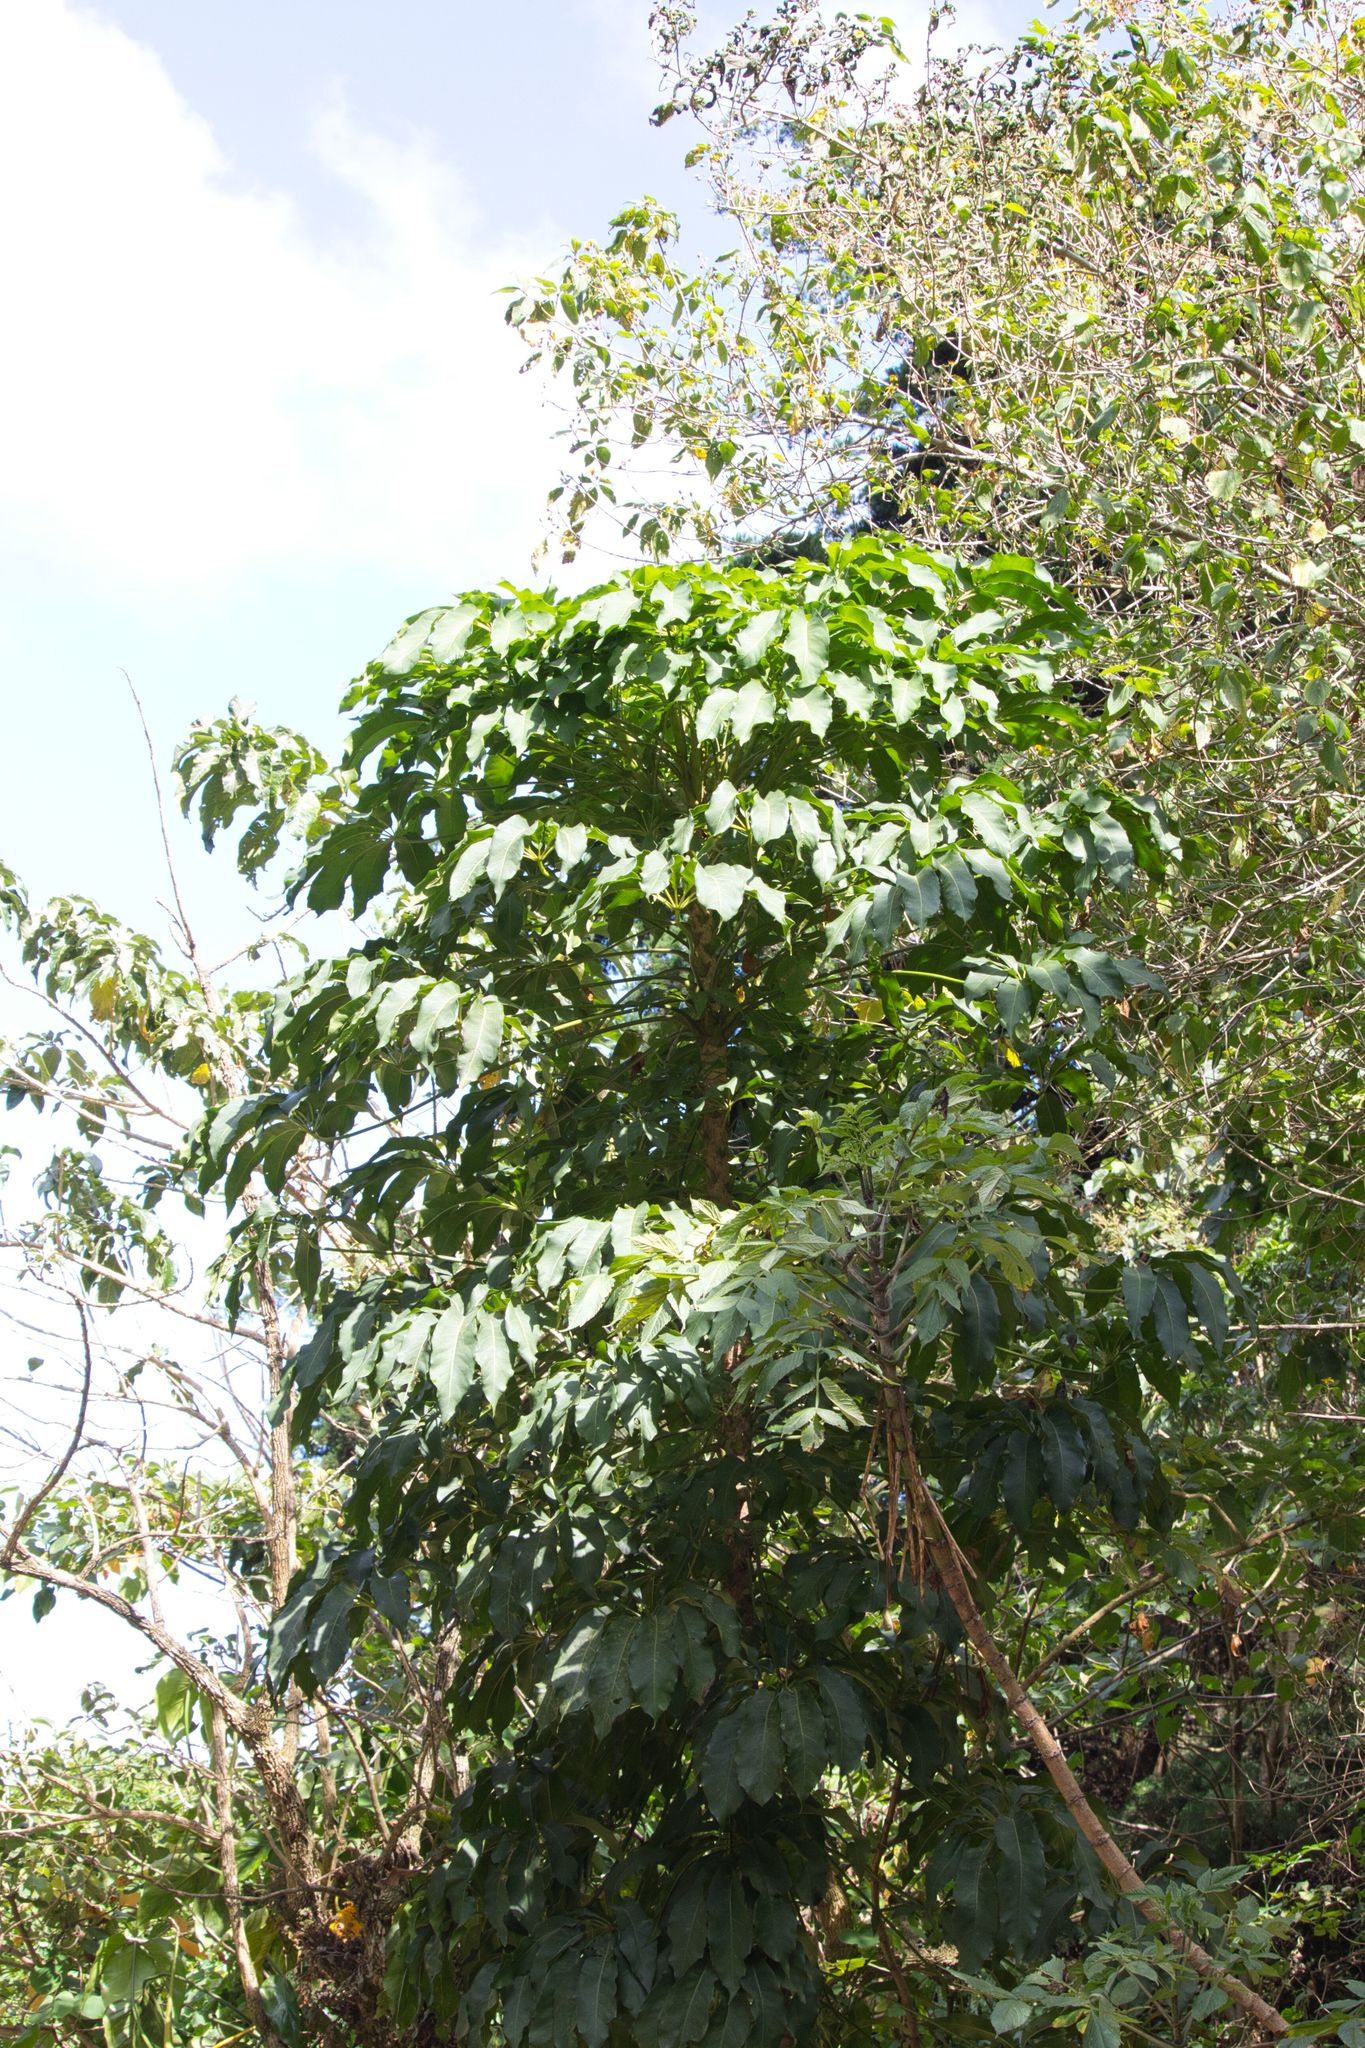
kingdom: Plantae
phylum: Tracheophyta
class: Magnoliopsida
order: Apiales
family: Araliaceae
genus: Oreopanax
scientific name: Oreopanax xalapensis
